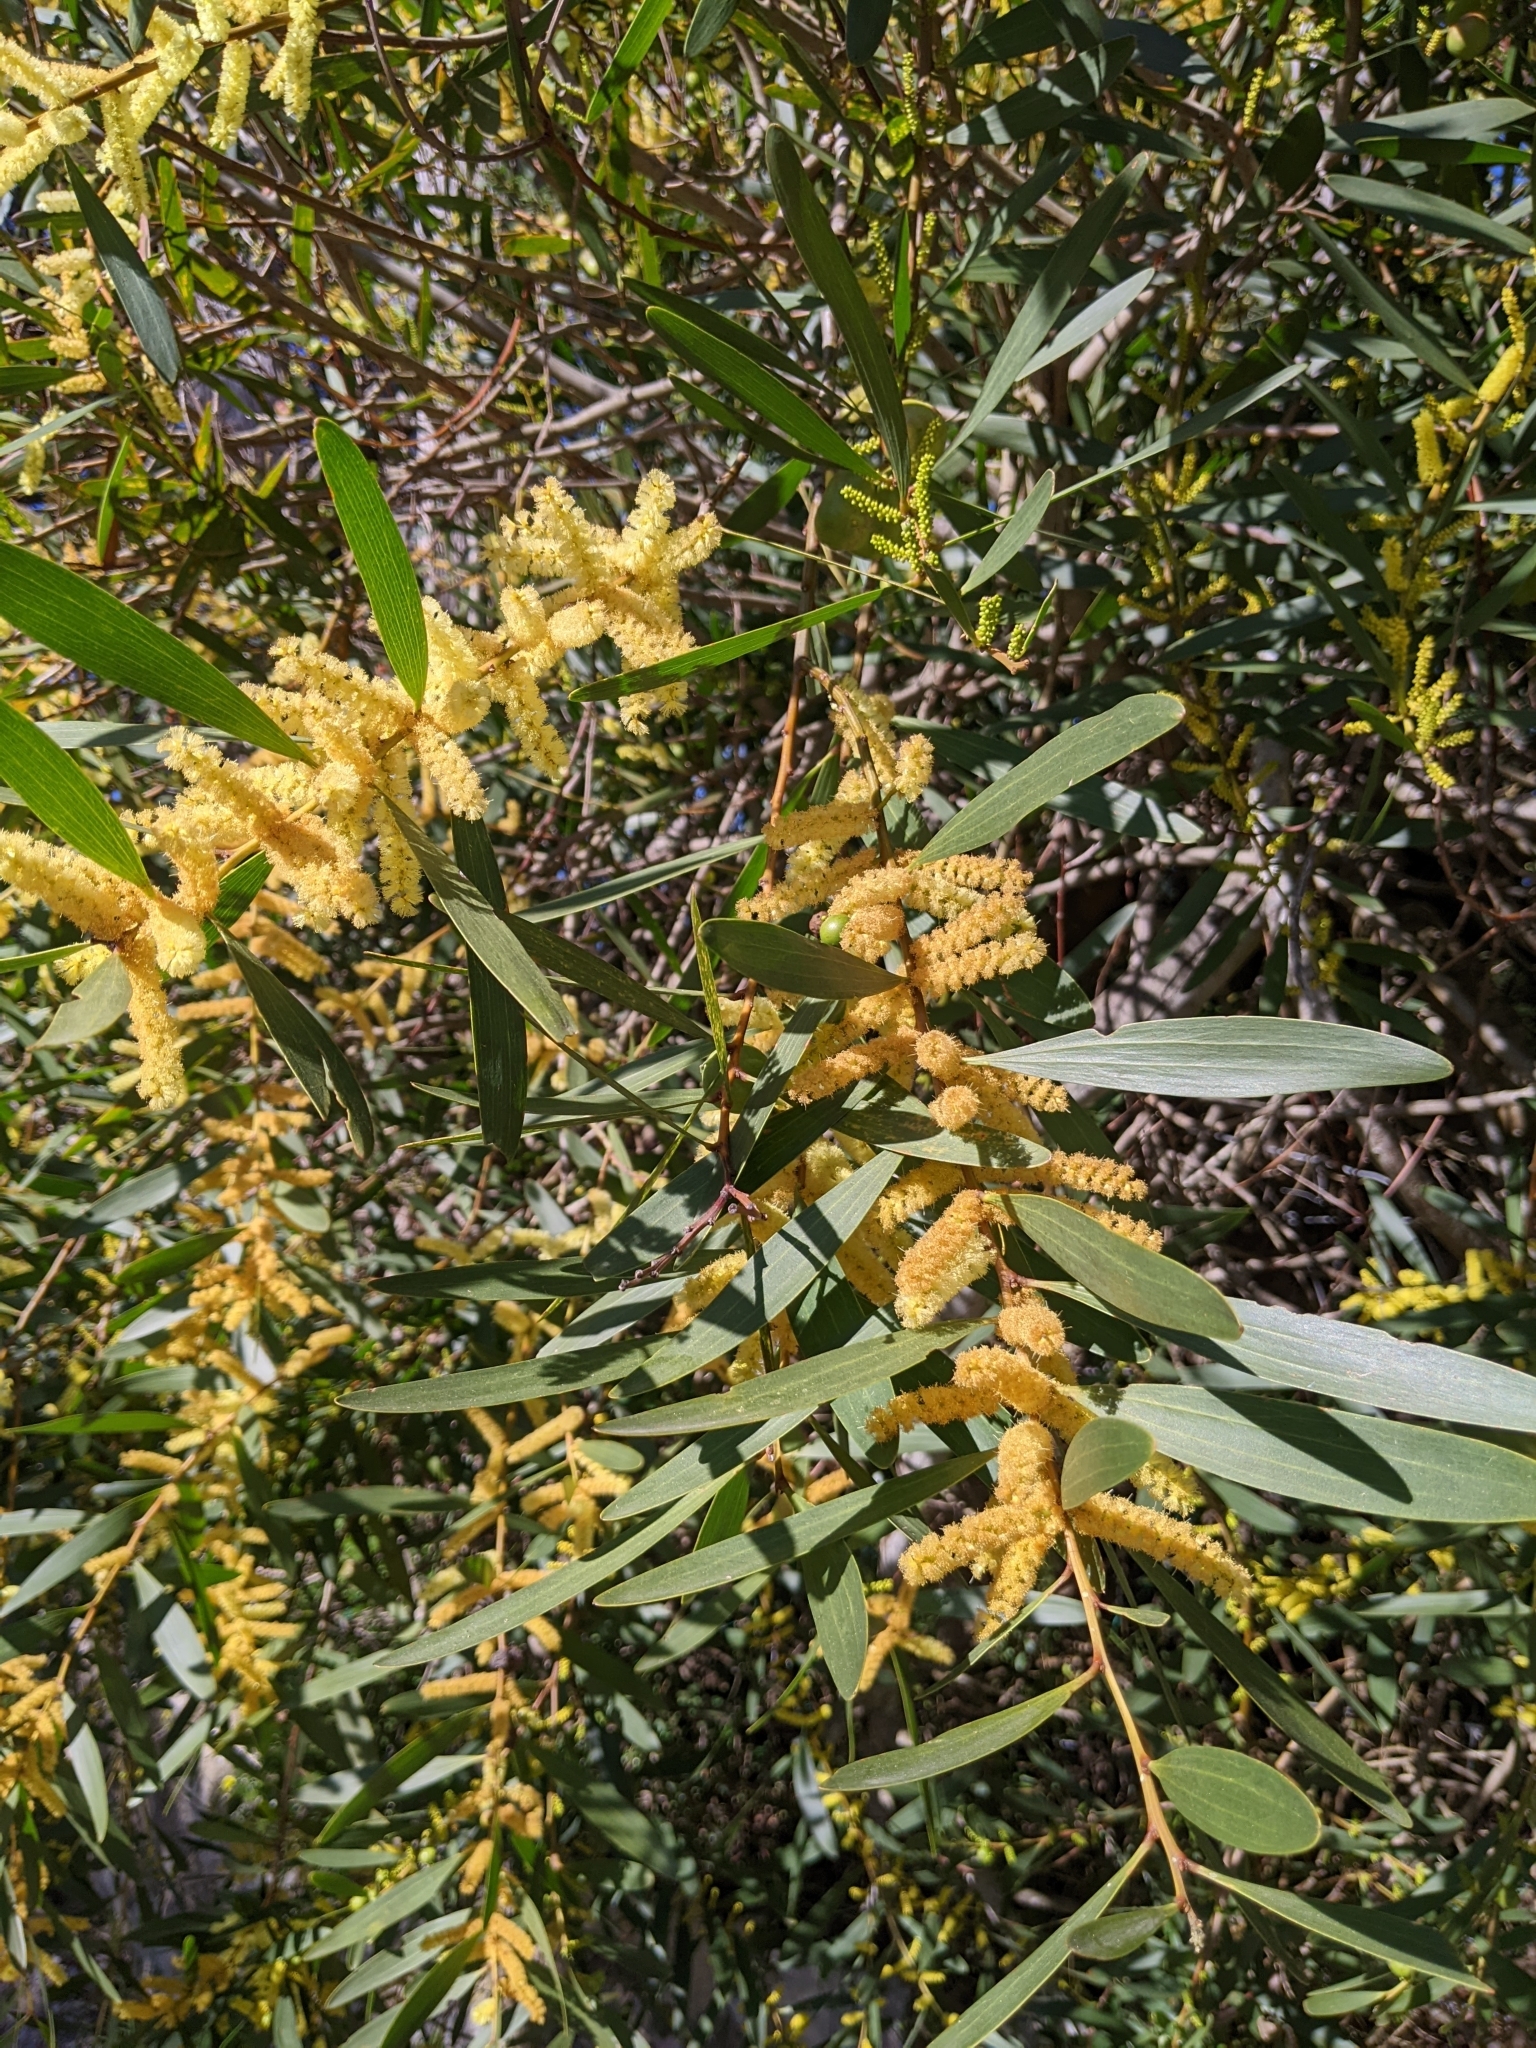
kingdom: Plantae
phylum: Tracheophyta
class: Magnoliopsida
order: Fabales
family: Fabaceae
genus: Acacia
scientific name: Acacia longifolia
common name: Sydney golden wattle
